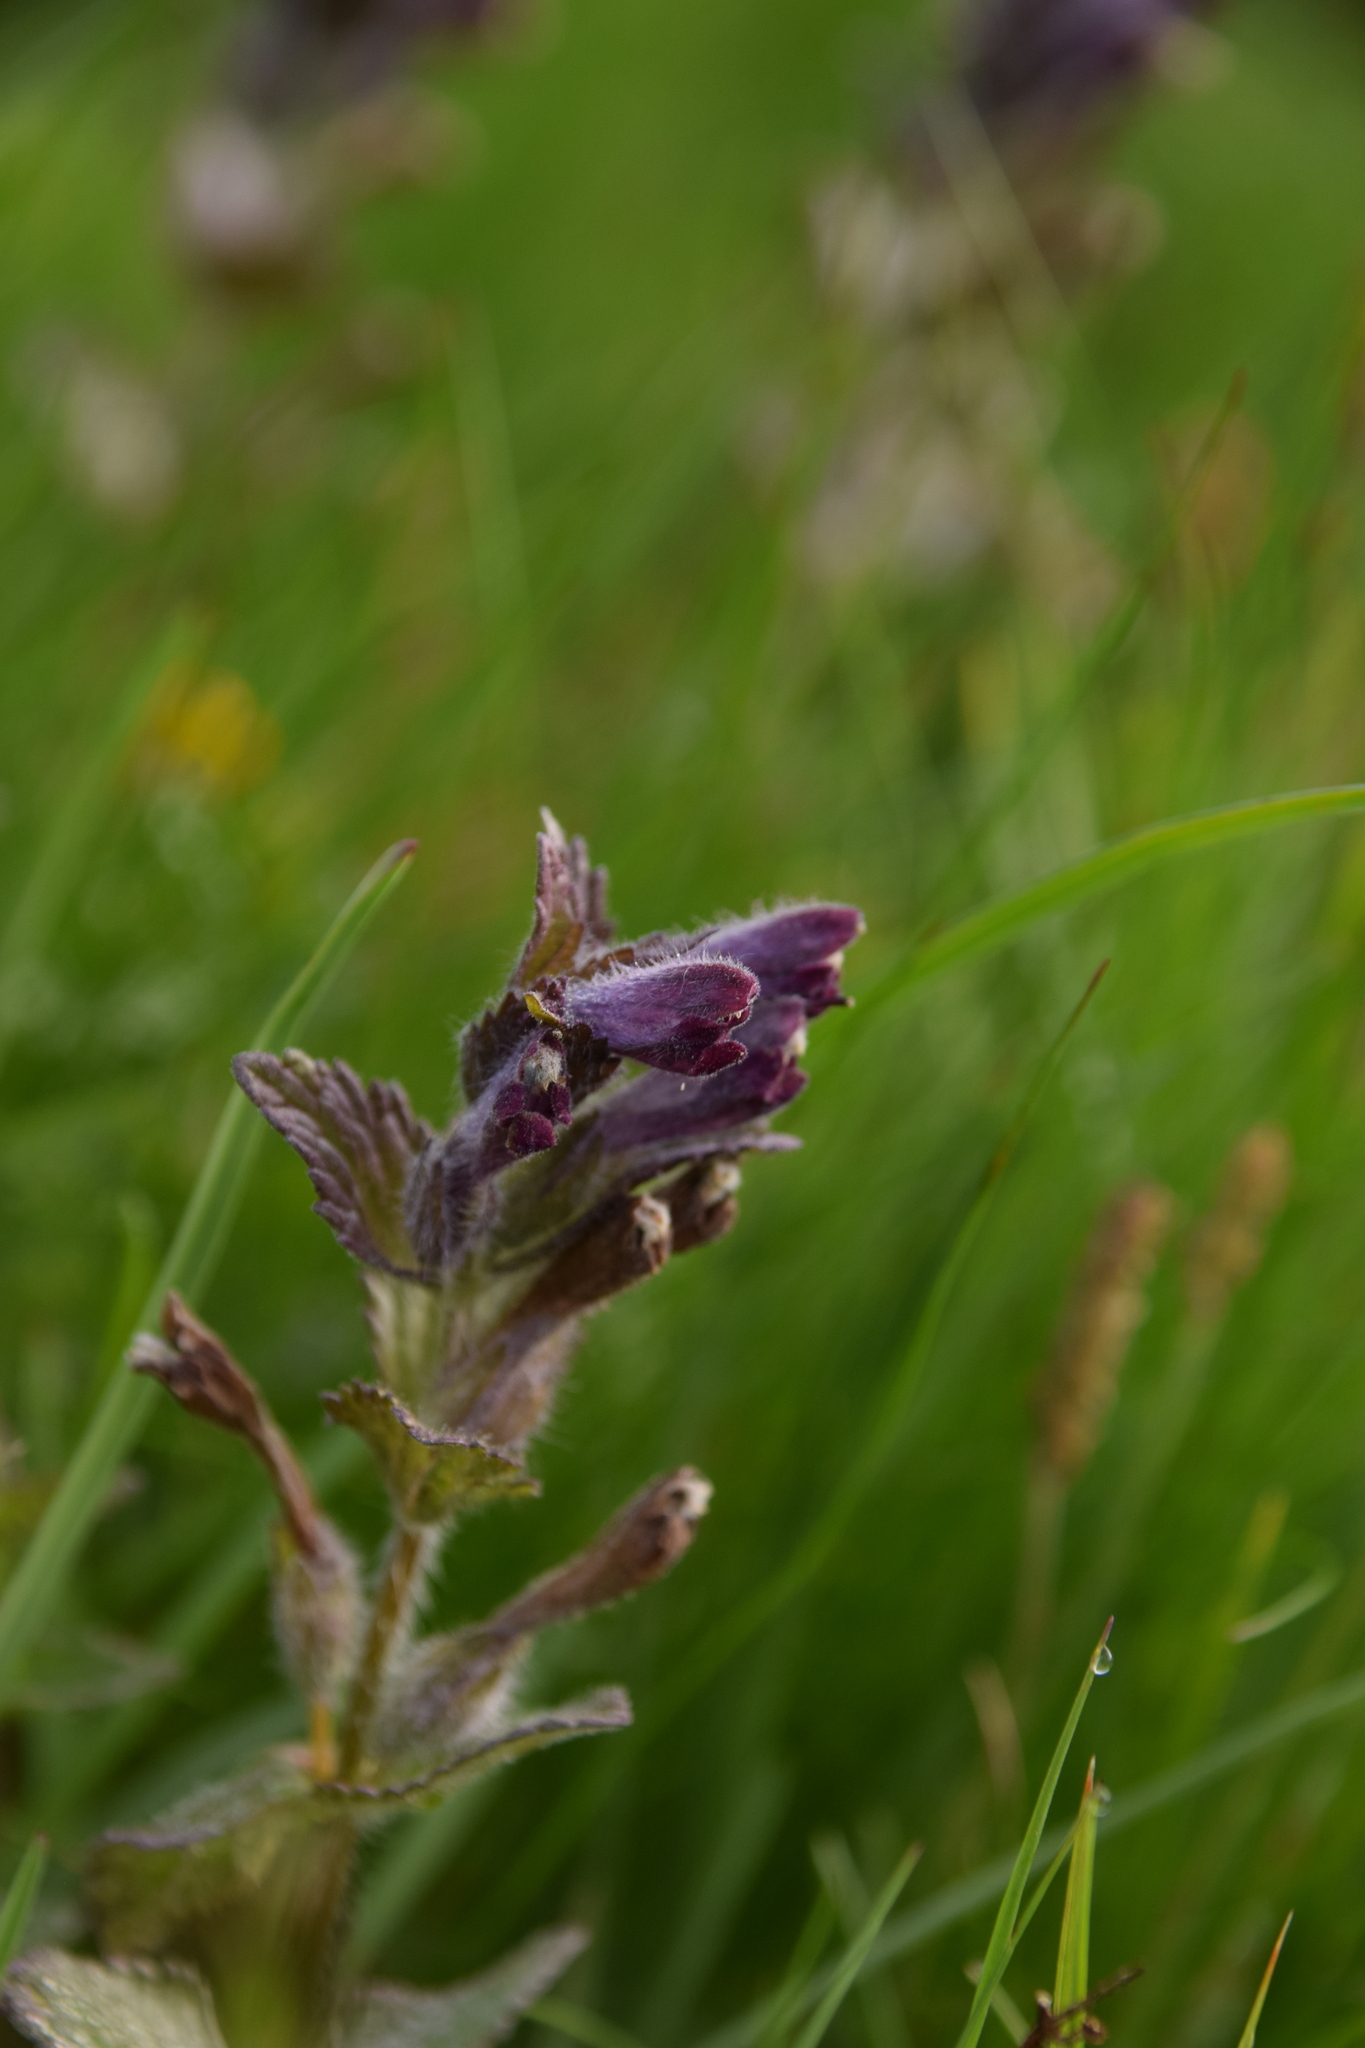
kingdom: Plantae
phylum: Tracheophyta
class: Magnoliopsida
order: Lamiales
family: Orobanchaceae
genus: Bartsia
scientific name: Bartsia alpina
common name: Alpine bartsia
